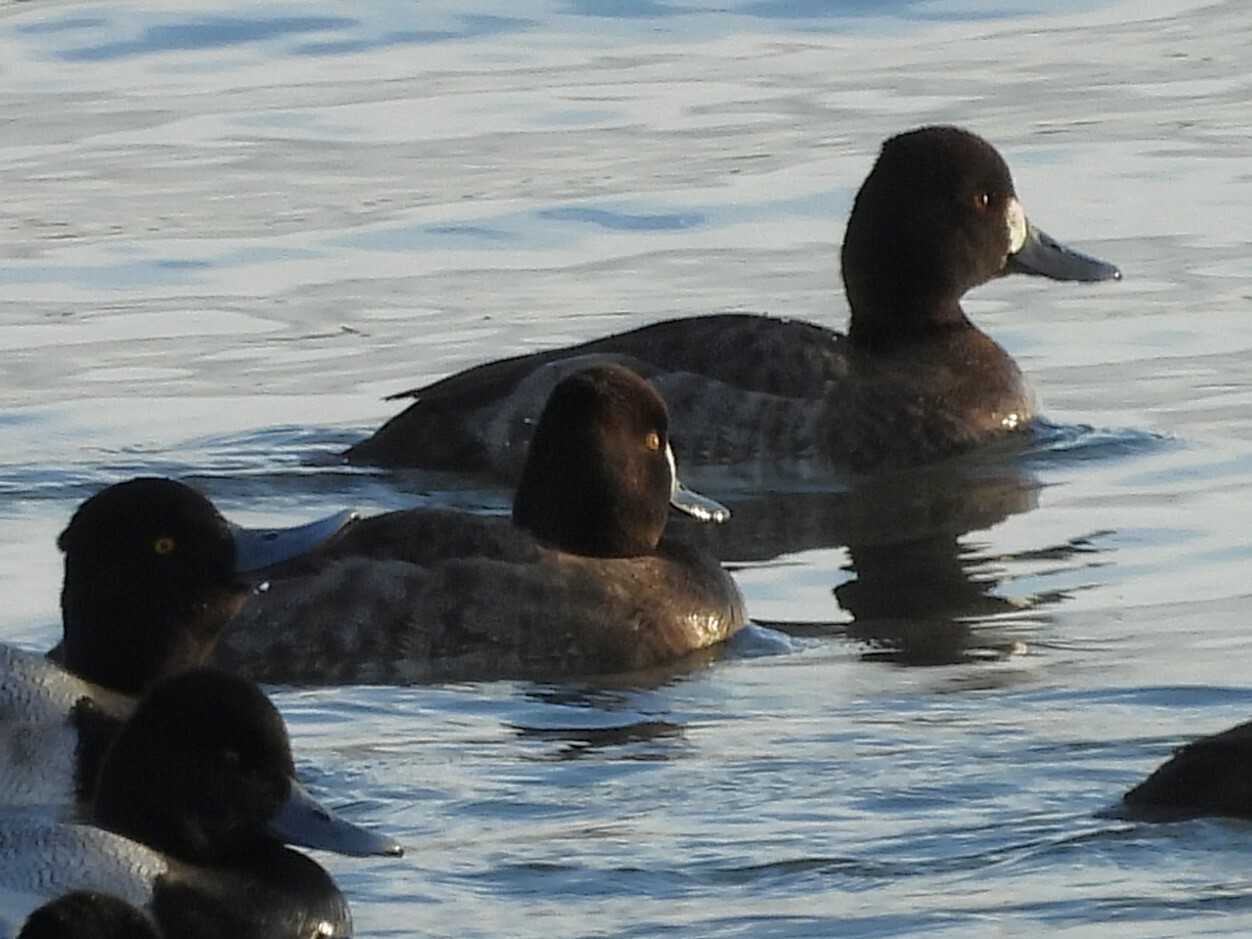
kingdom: Animalia
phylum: Chordata
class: Aves
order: Anseriformes
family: Anatidae
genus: Aythya
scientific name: Aythya affinis
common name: Lesser scaup
